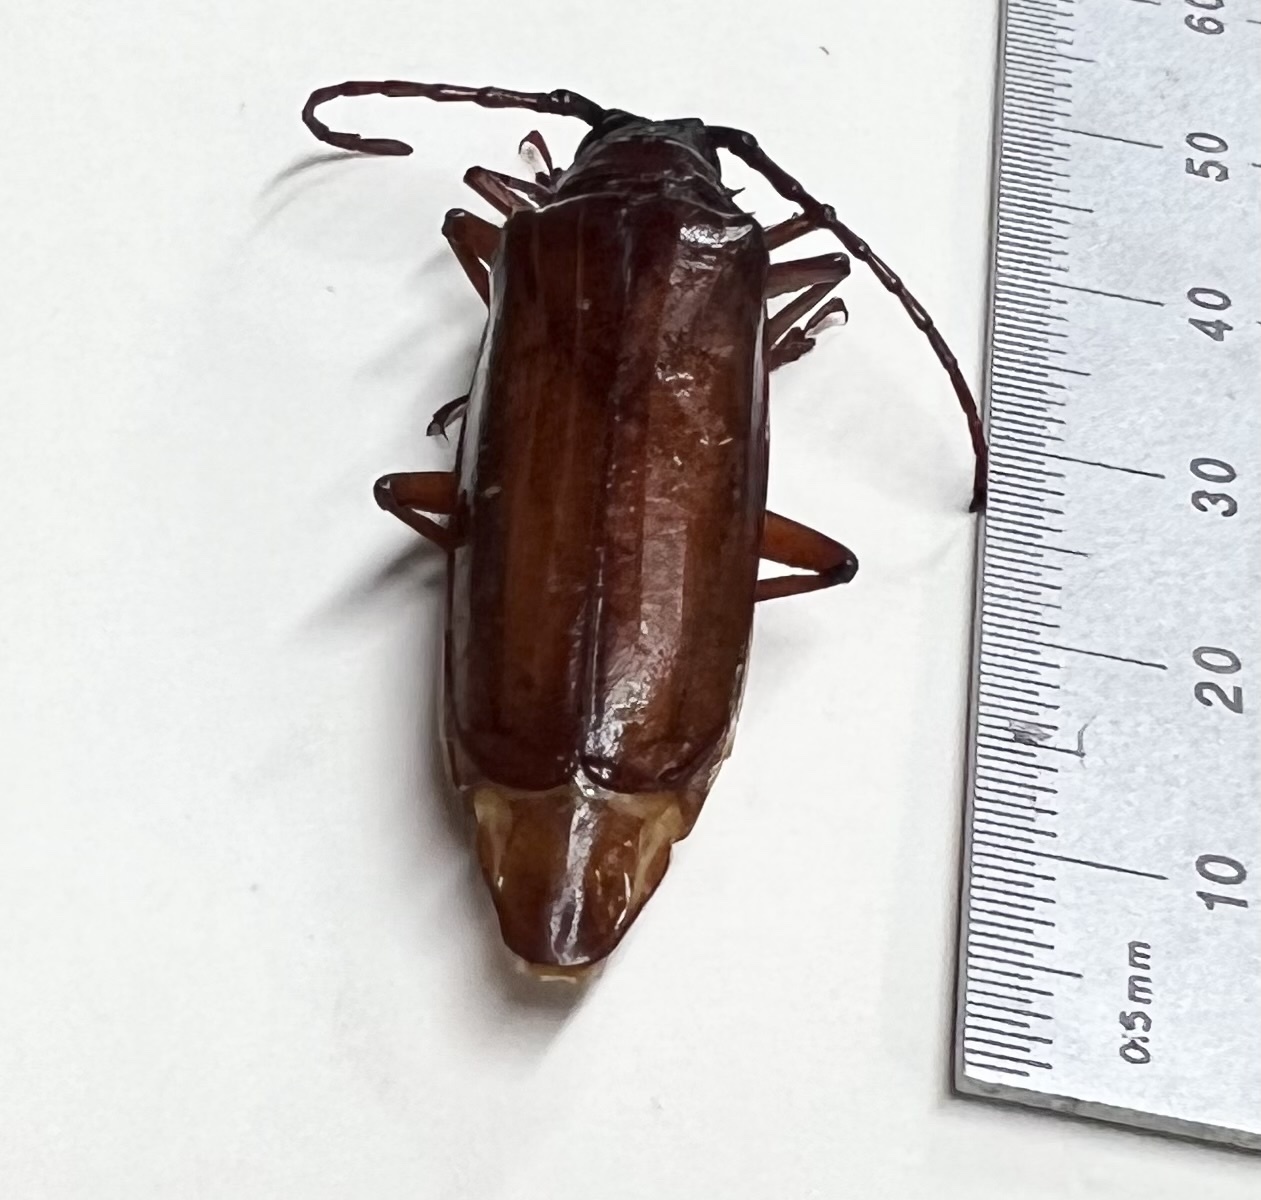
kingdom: Animalia
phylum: Arthropoda
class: Insecta
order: Coleoptera
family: Cerambycidae
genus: Orthosoma
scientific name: Orthosoma brunneum
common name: Brown prionid beetle
